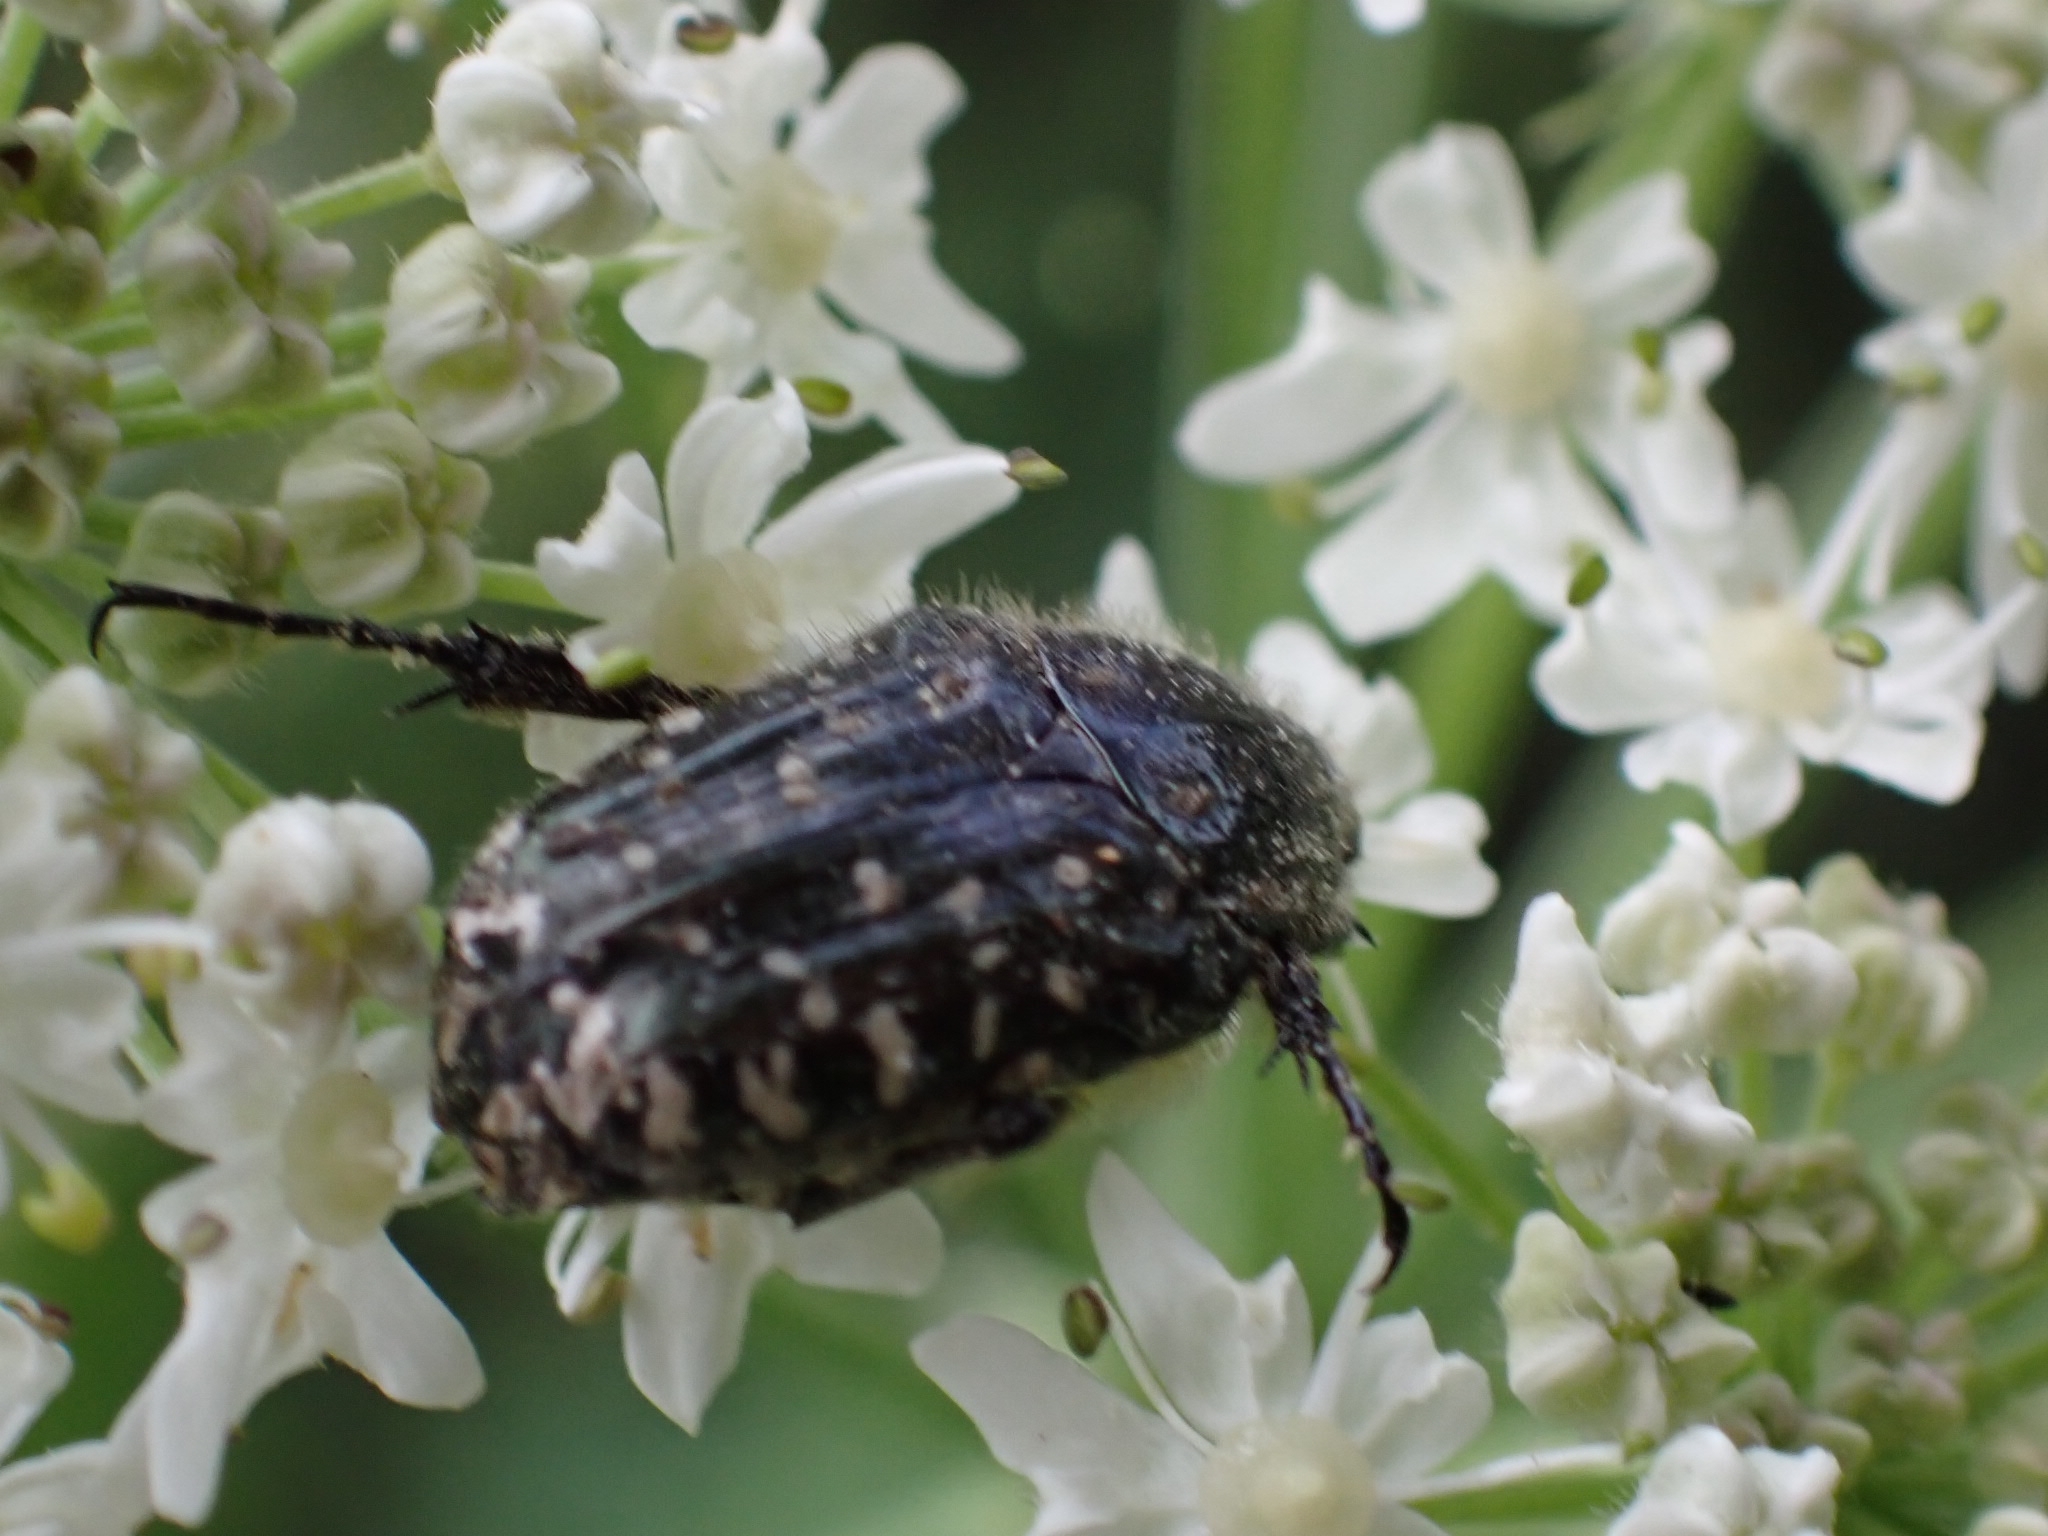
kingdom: Animalia
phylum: Arthropoda
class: Insecta
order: Coleoptera
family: Scarabaeidae
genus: Oxythyrea
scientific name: Oxythyrea funesta
